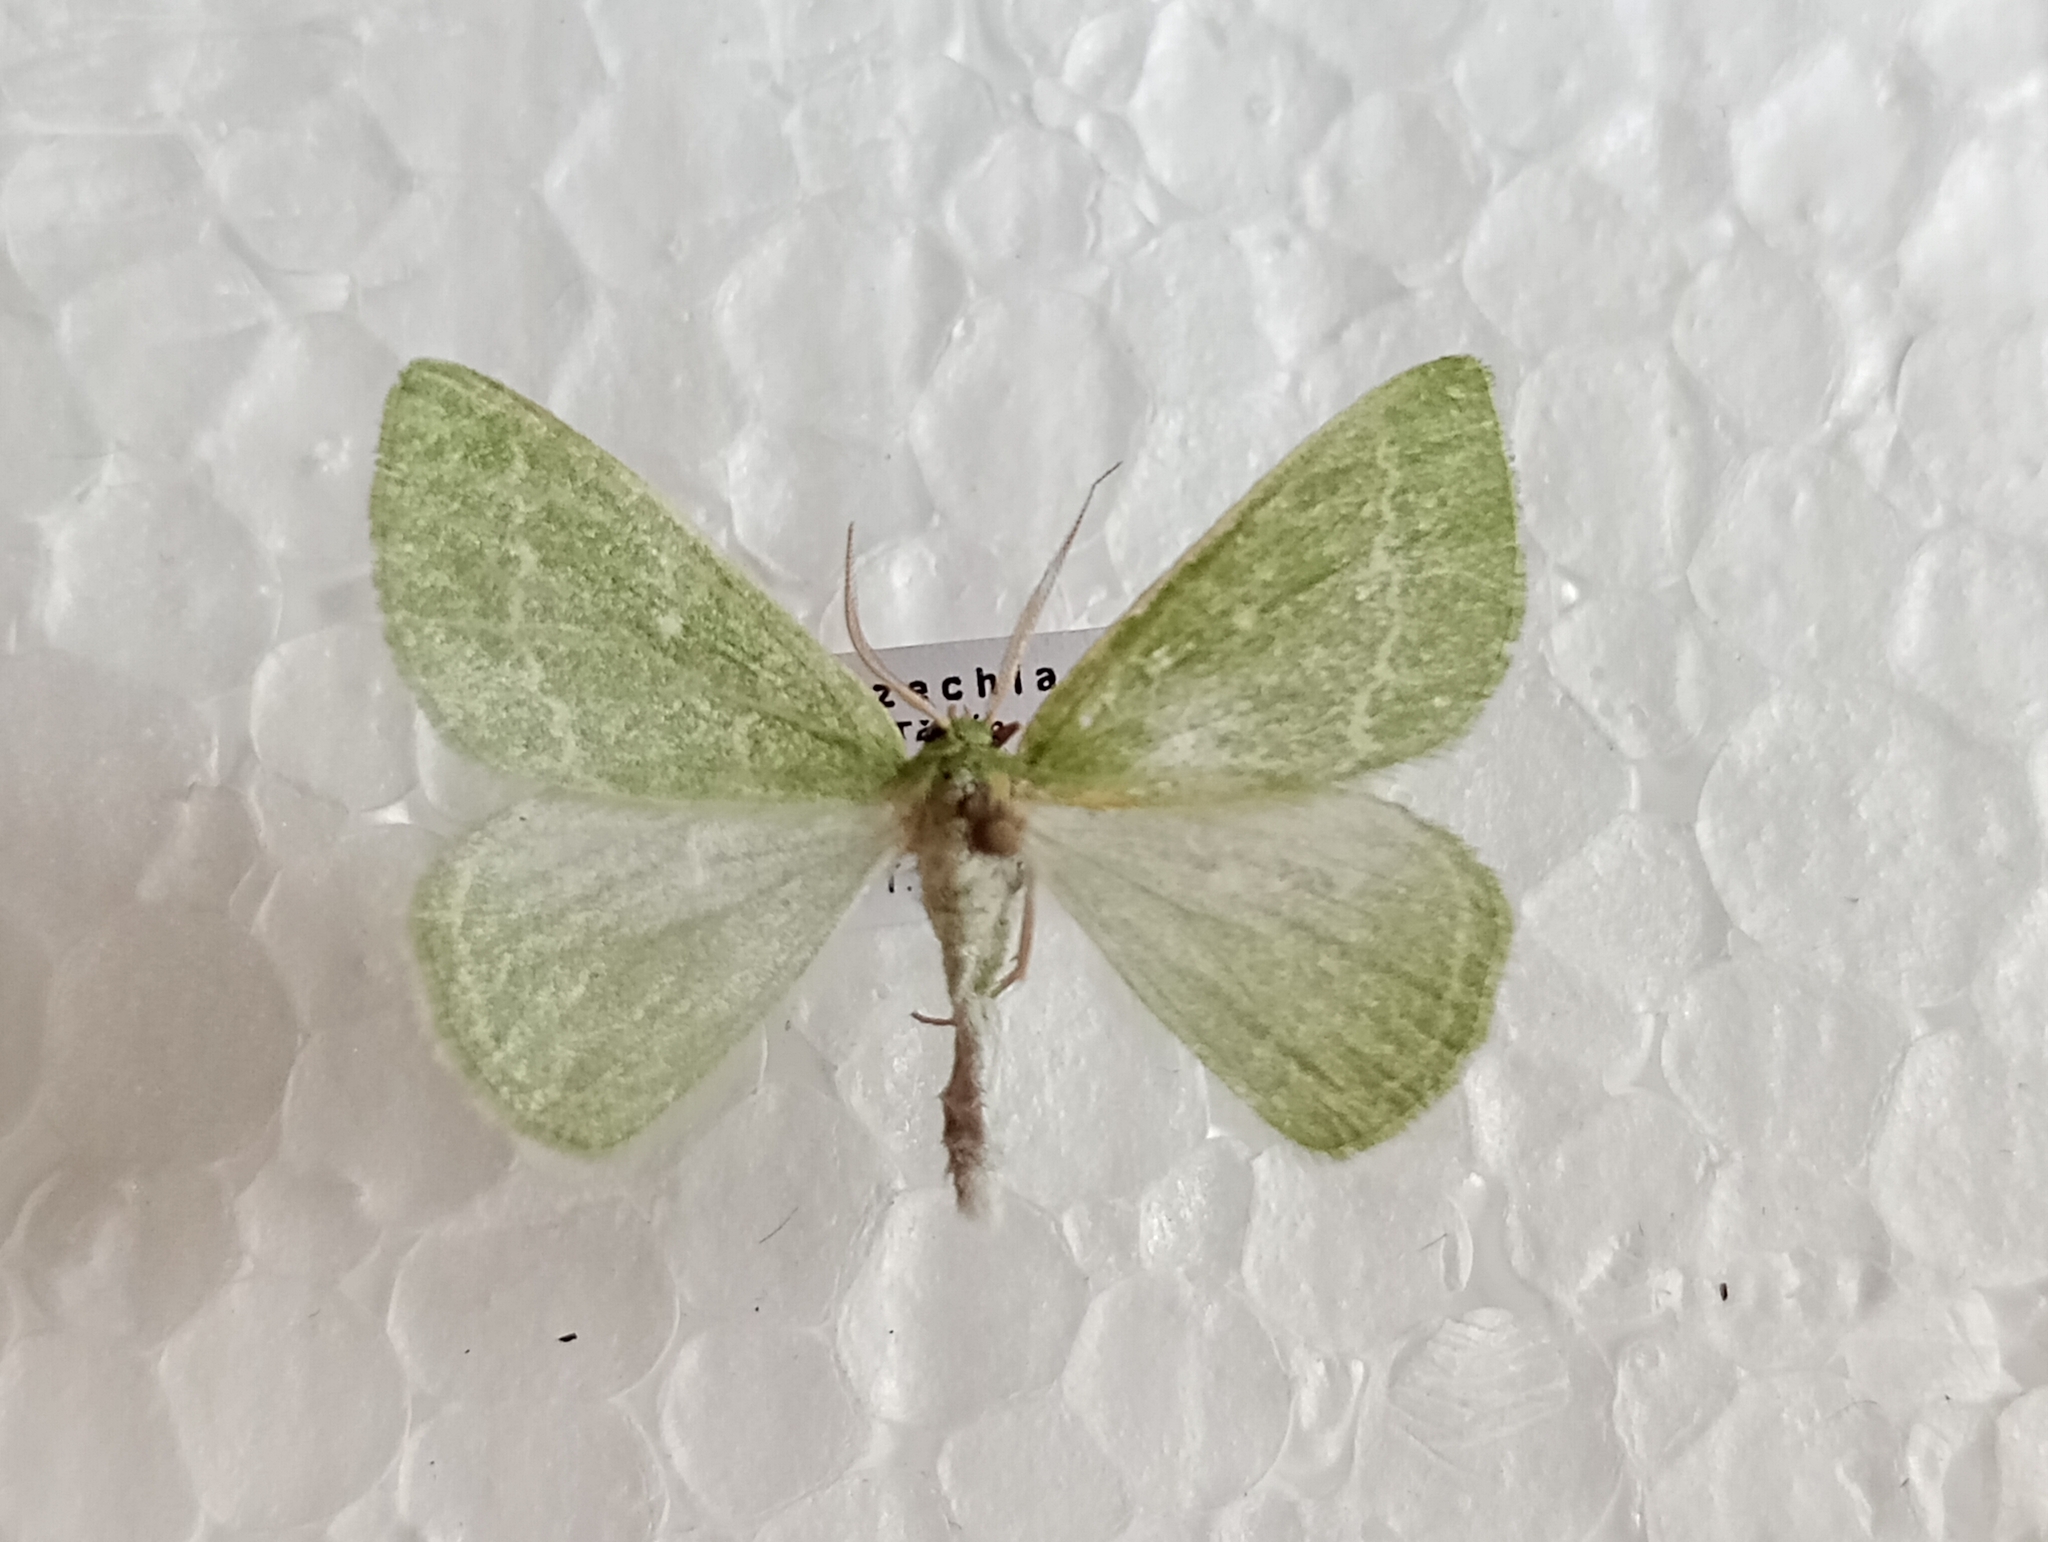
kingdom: Animalia
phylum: Arthropoda
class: Insecta
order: Lepidoptera
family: Geometridae
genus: Thetidia
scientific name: Thetidia smaragdaria
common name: Essex emerald
